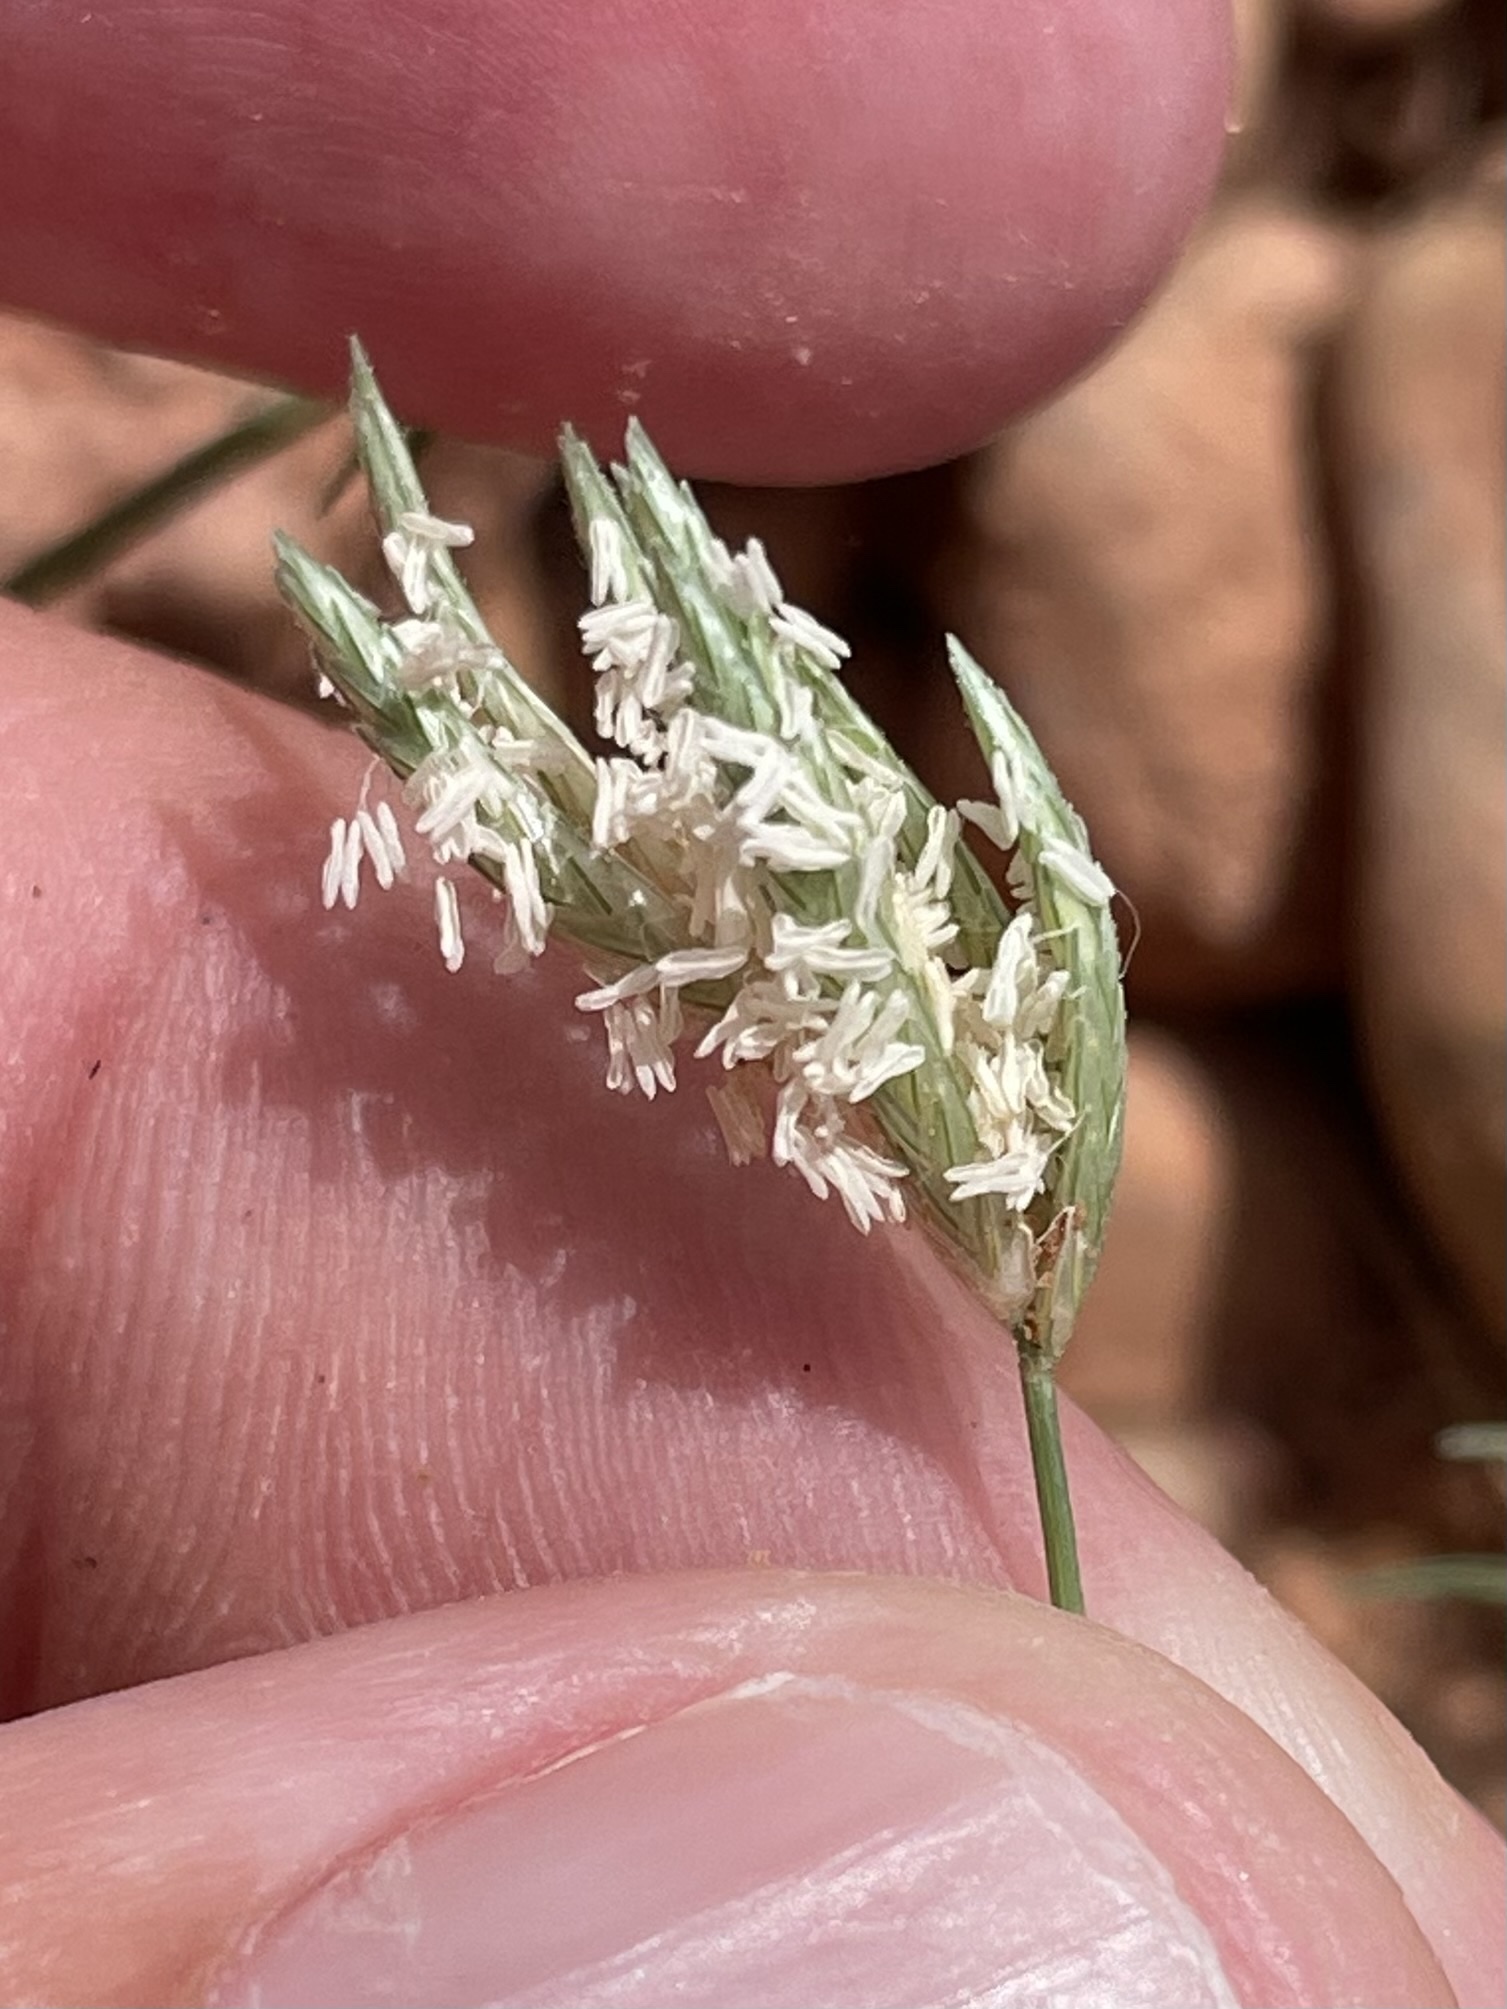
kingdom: Plantae
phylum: Tracheophyta
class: Liliopsida
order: Poales
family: Poaceae
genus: Eragrostis
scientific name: Eragrostis reptans
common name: Creeping love grass
